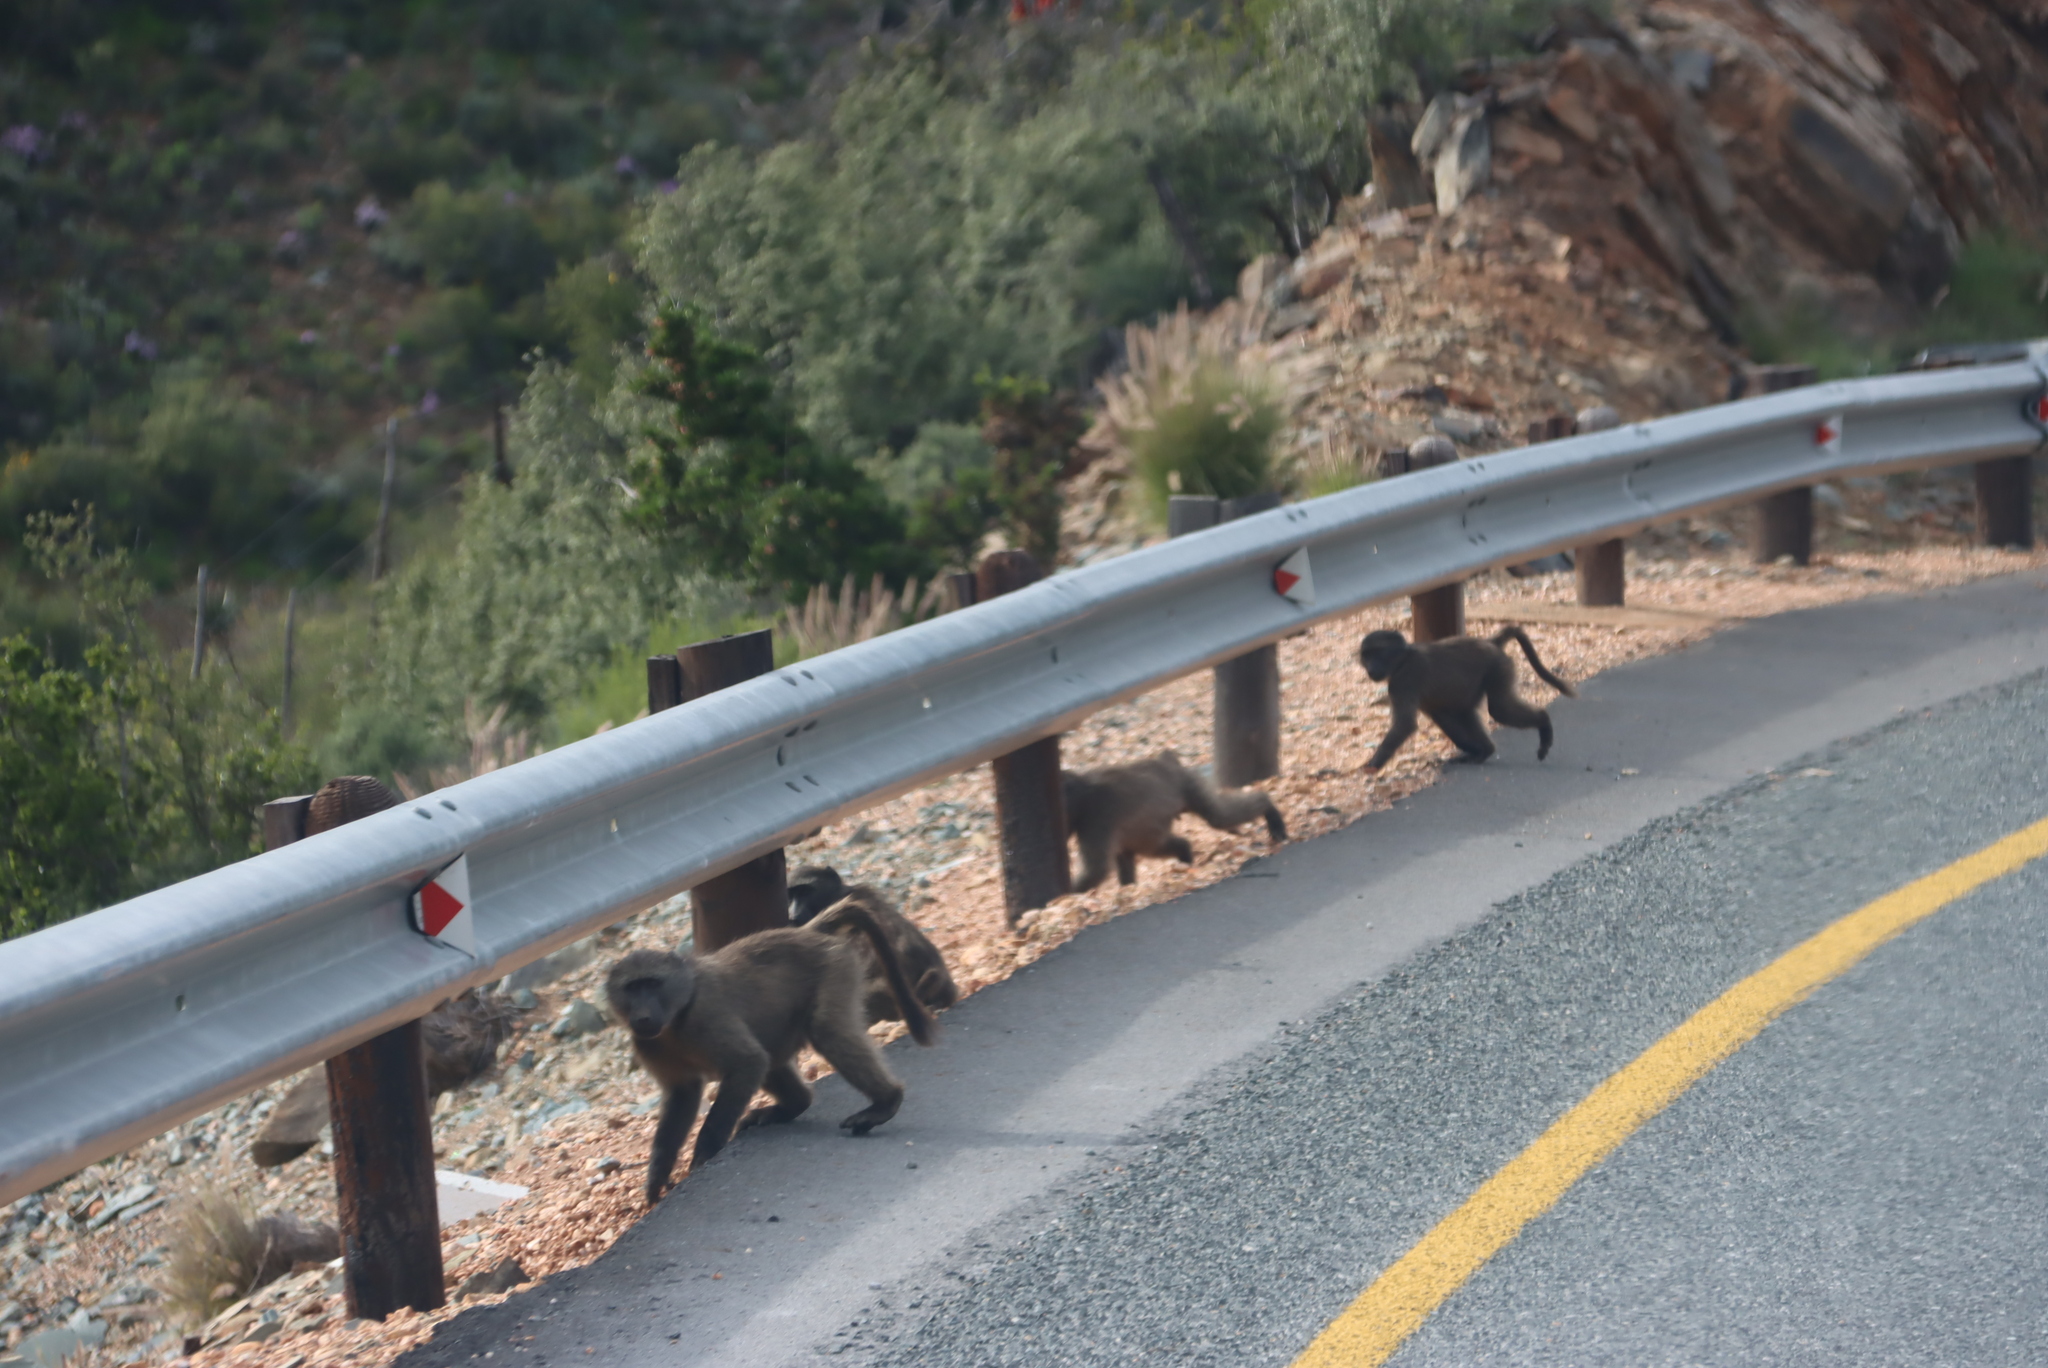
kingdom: Animalia
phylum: Chordata
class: Mammalia
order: Primates
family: Cercopithecidae
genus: Papio
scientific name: Papio ursinus
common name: Chacma baboon
